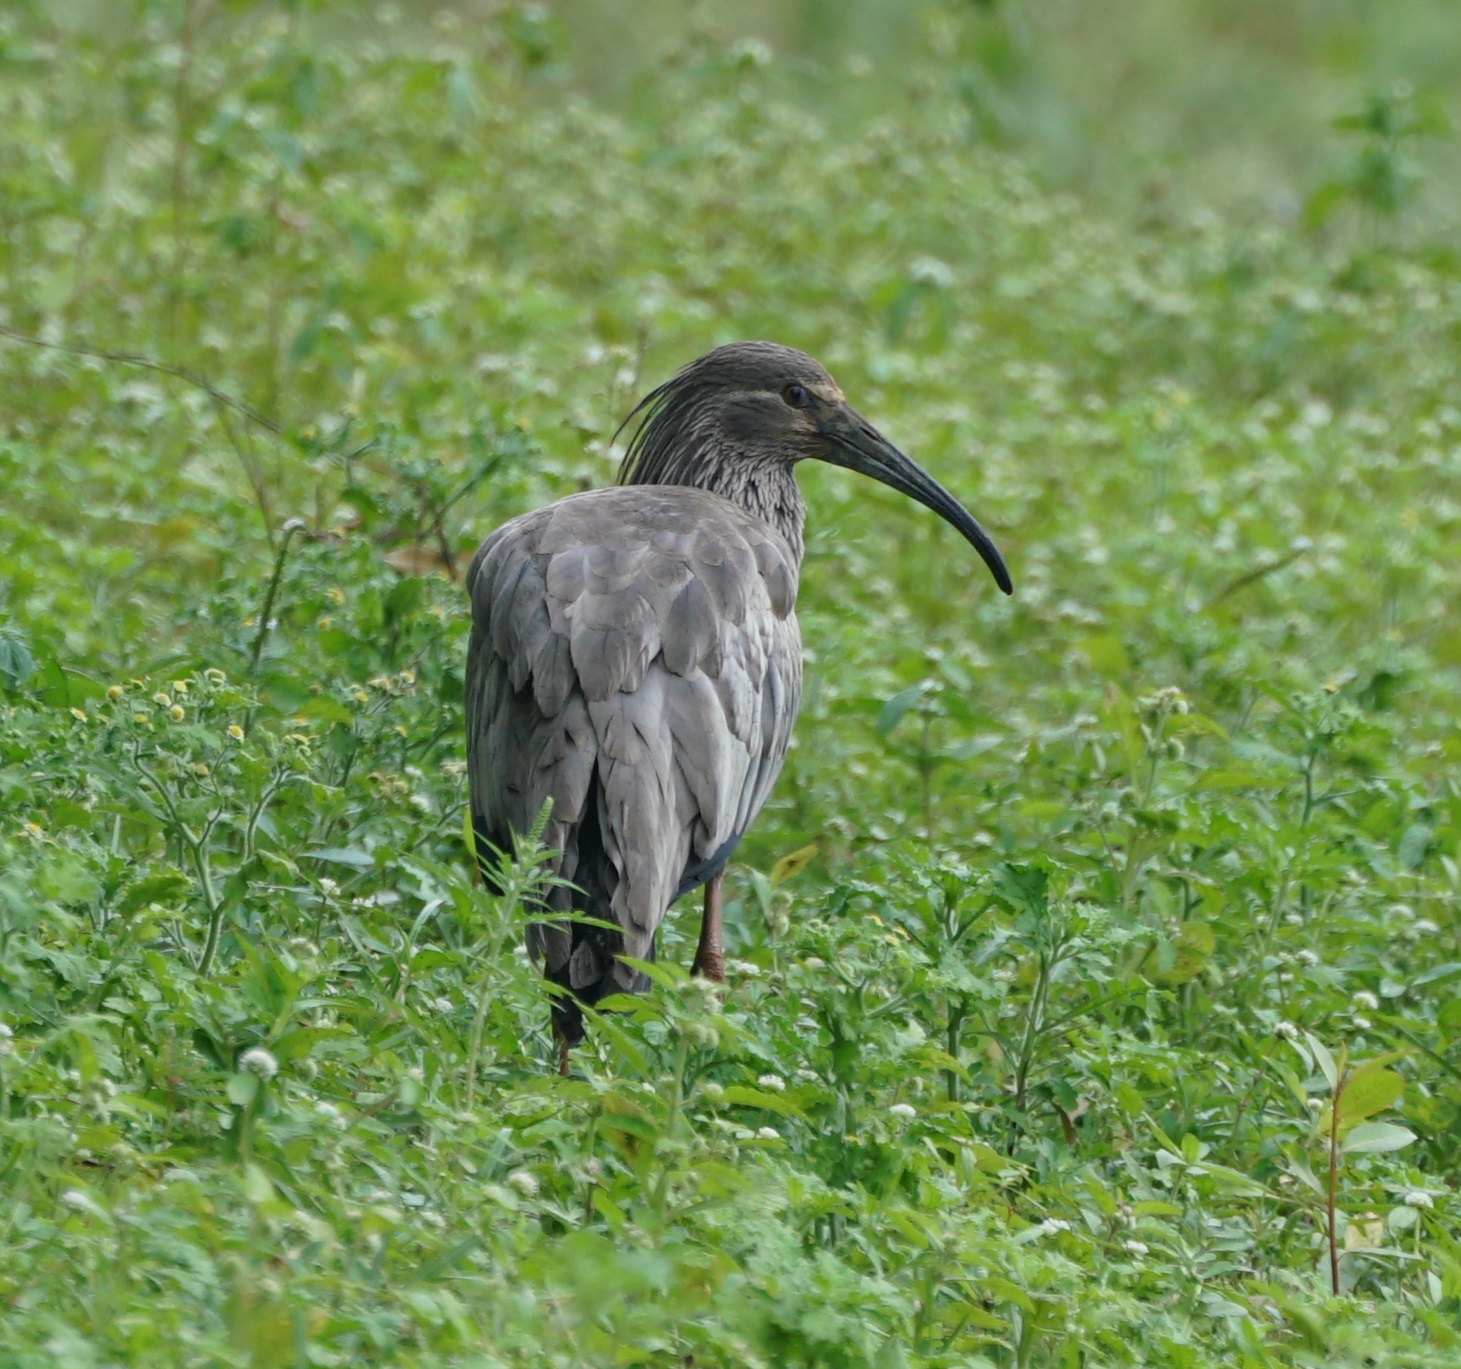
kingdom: Animalia
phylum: Chordata
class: Aves
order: Pelecaniformes
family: Threskiornithidae
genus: Theristicus
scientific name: Theristicus caerulescens
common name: Plumbeous ibis
